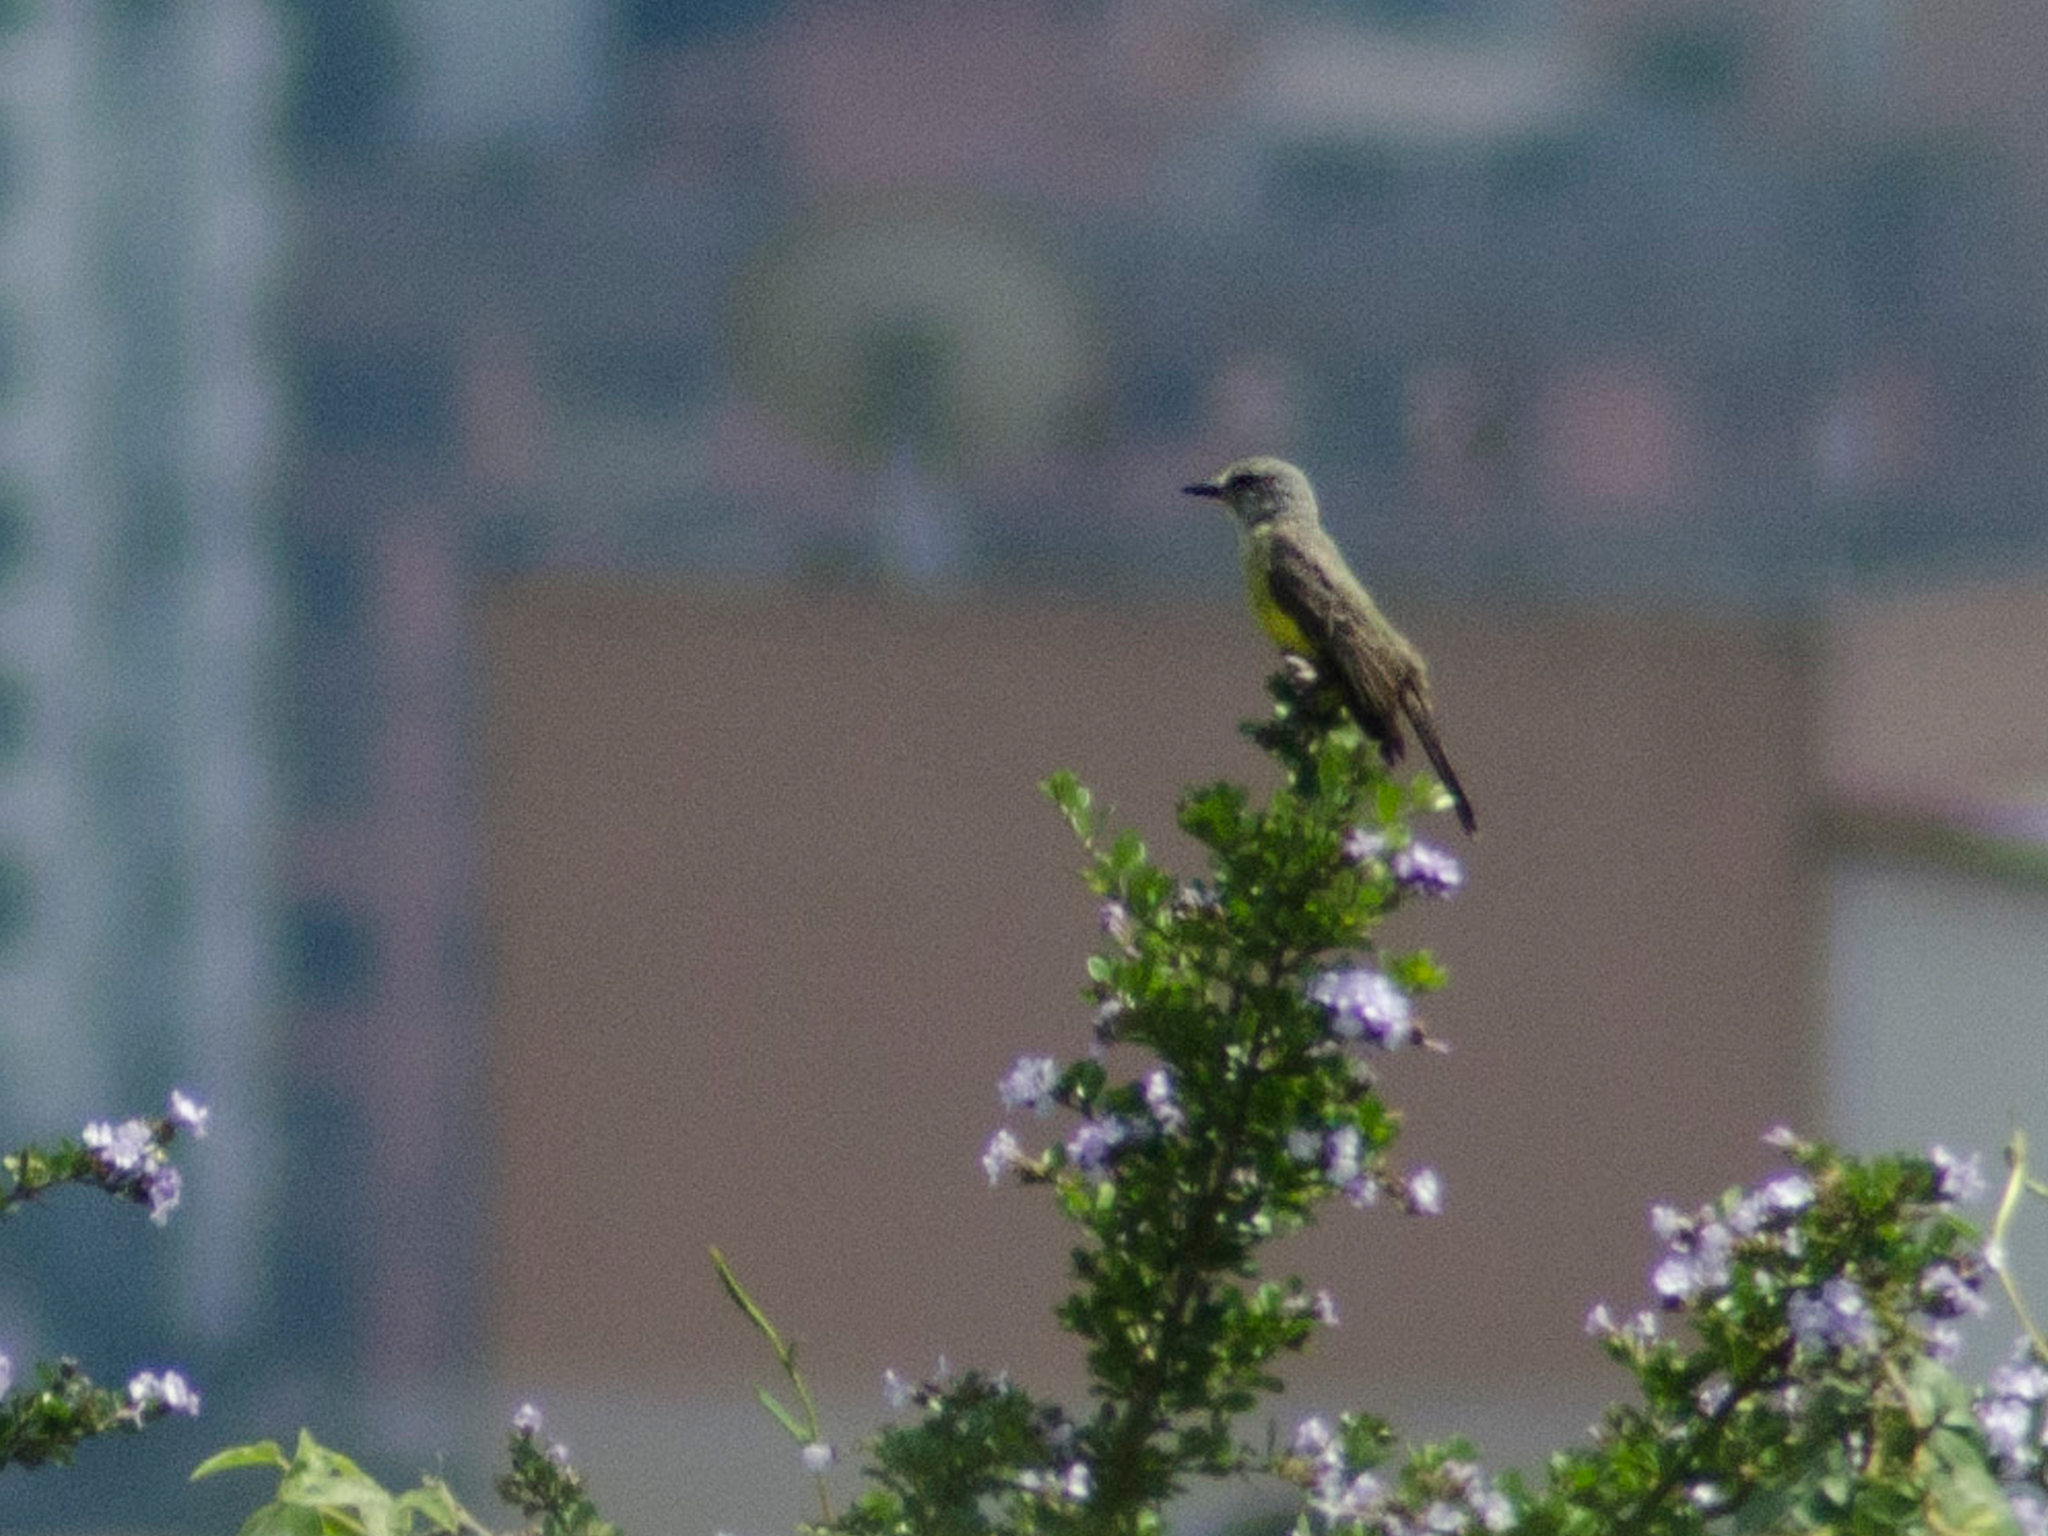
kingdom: Animalia
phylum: Chordata
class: Aves
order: Passeriformes
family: Tyrannidae
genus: Tyrannus
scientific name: Tyrannus melancholicus
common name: Tropical kingbird
